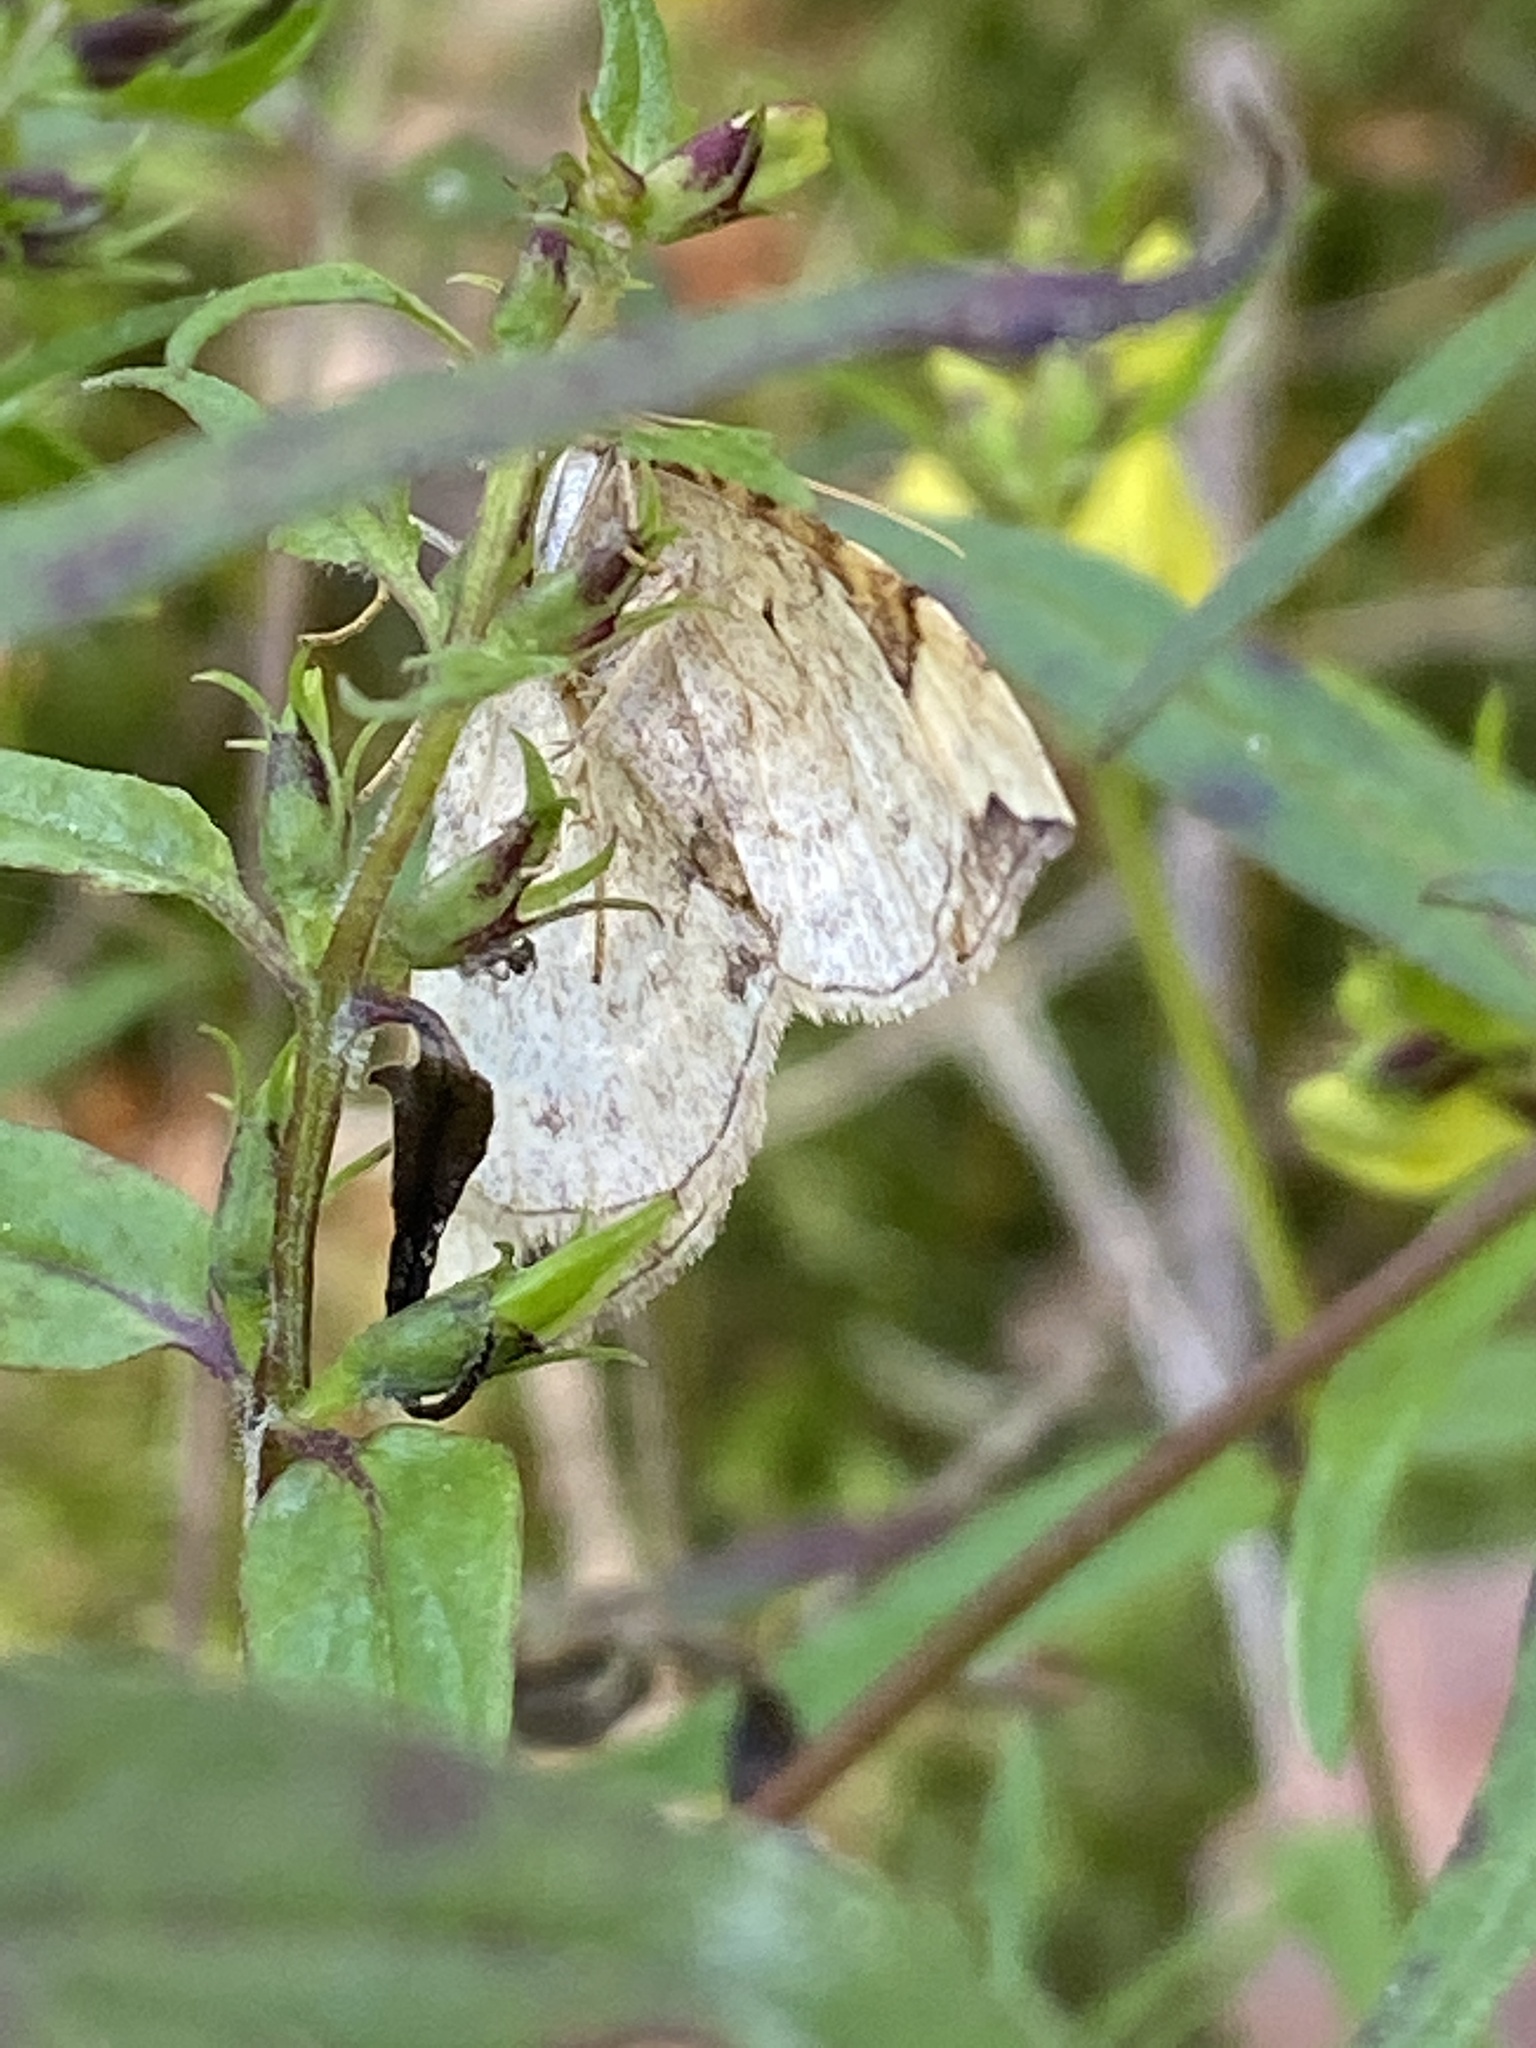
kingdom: Animalia
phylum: Arthropoda
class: Insecta
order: Lepidoptera
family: Geometridae
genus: Eulithis
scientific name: Eulithis populata
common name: Northern spinach
